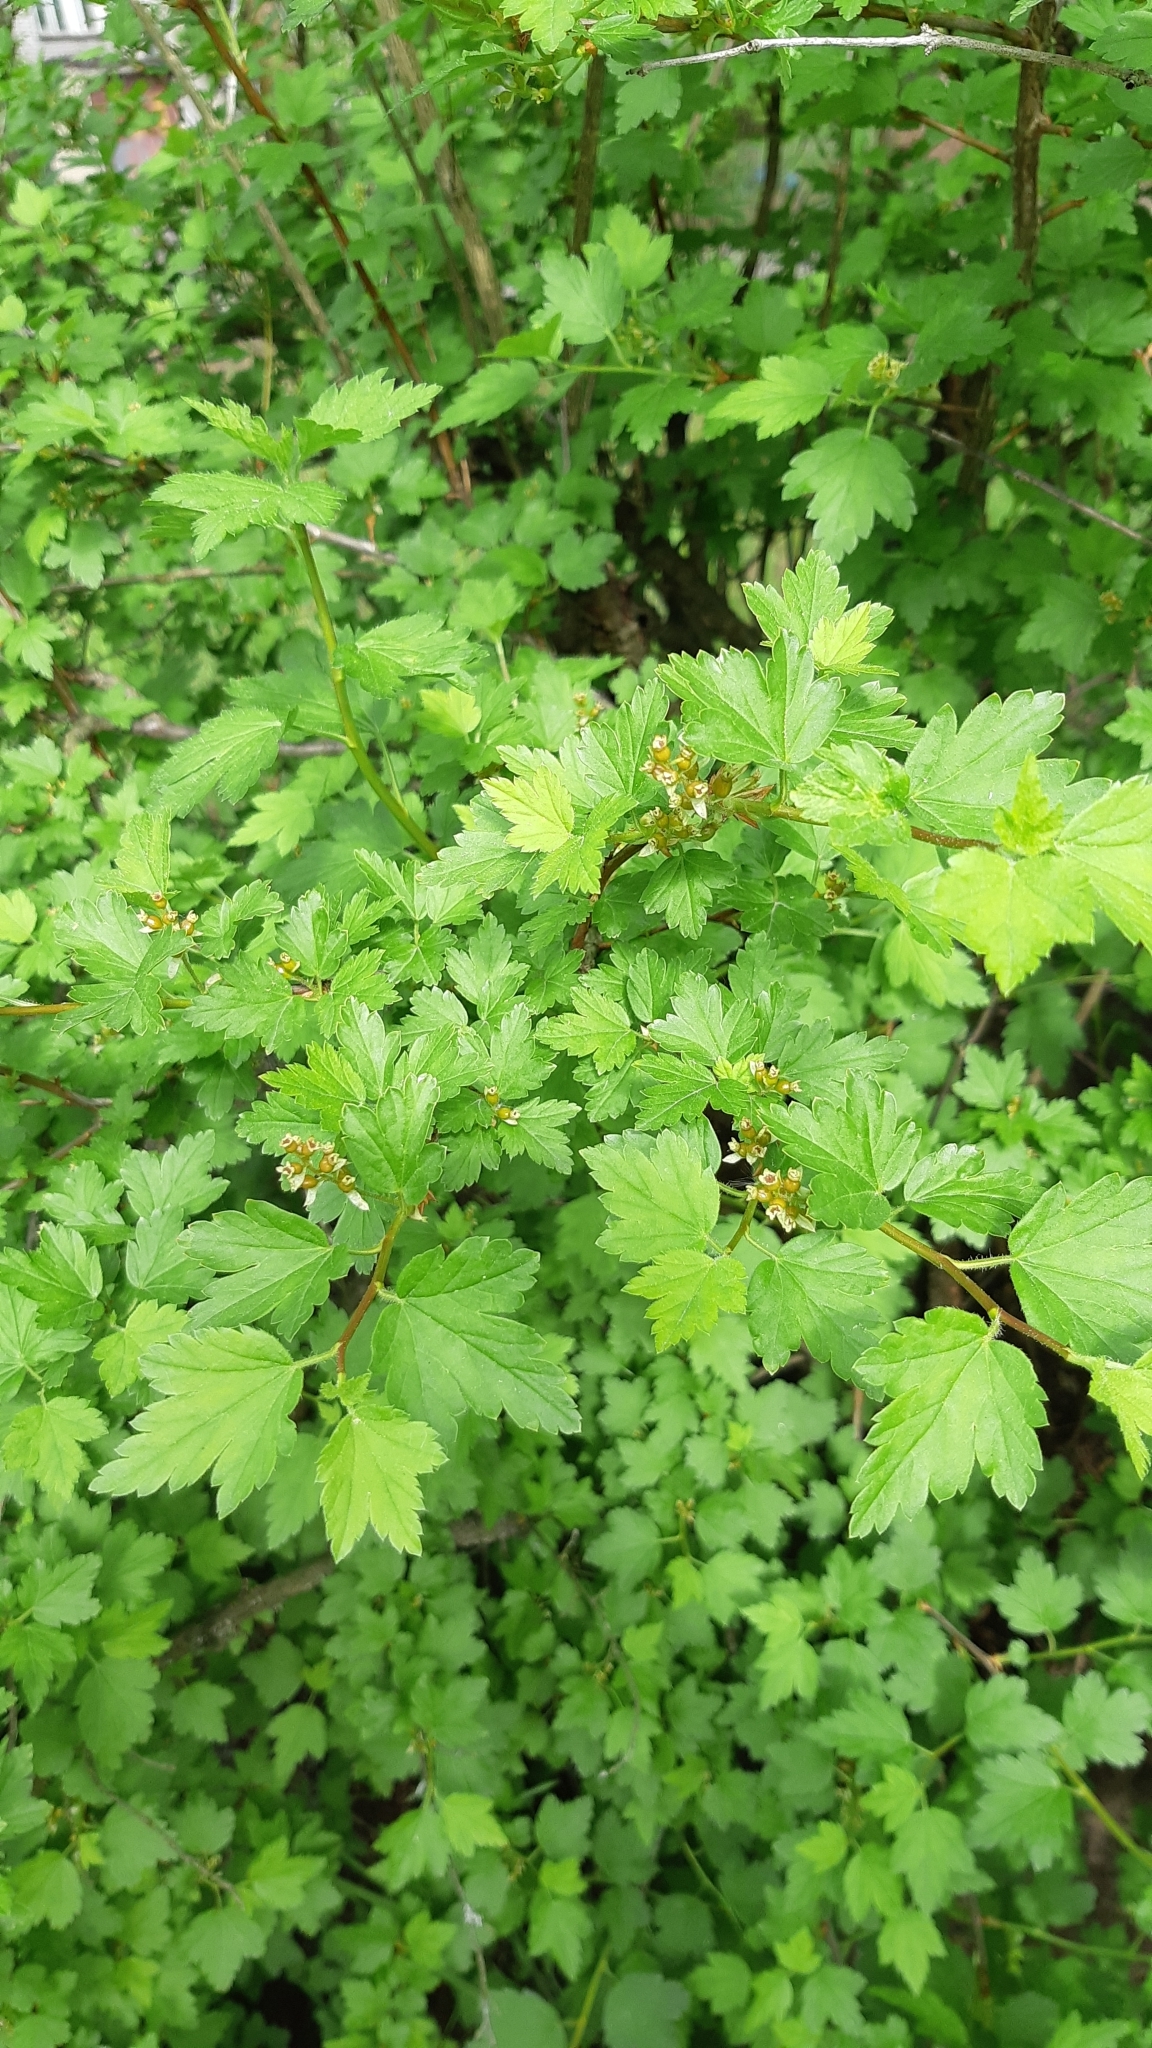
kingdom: Plantae
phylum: Tracheophyta
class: Magnoliopsida
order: Saxifragales
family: Grossulariaceae
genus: Ribes
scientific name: Ribes alpinum
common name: Alpine currant
